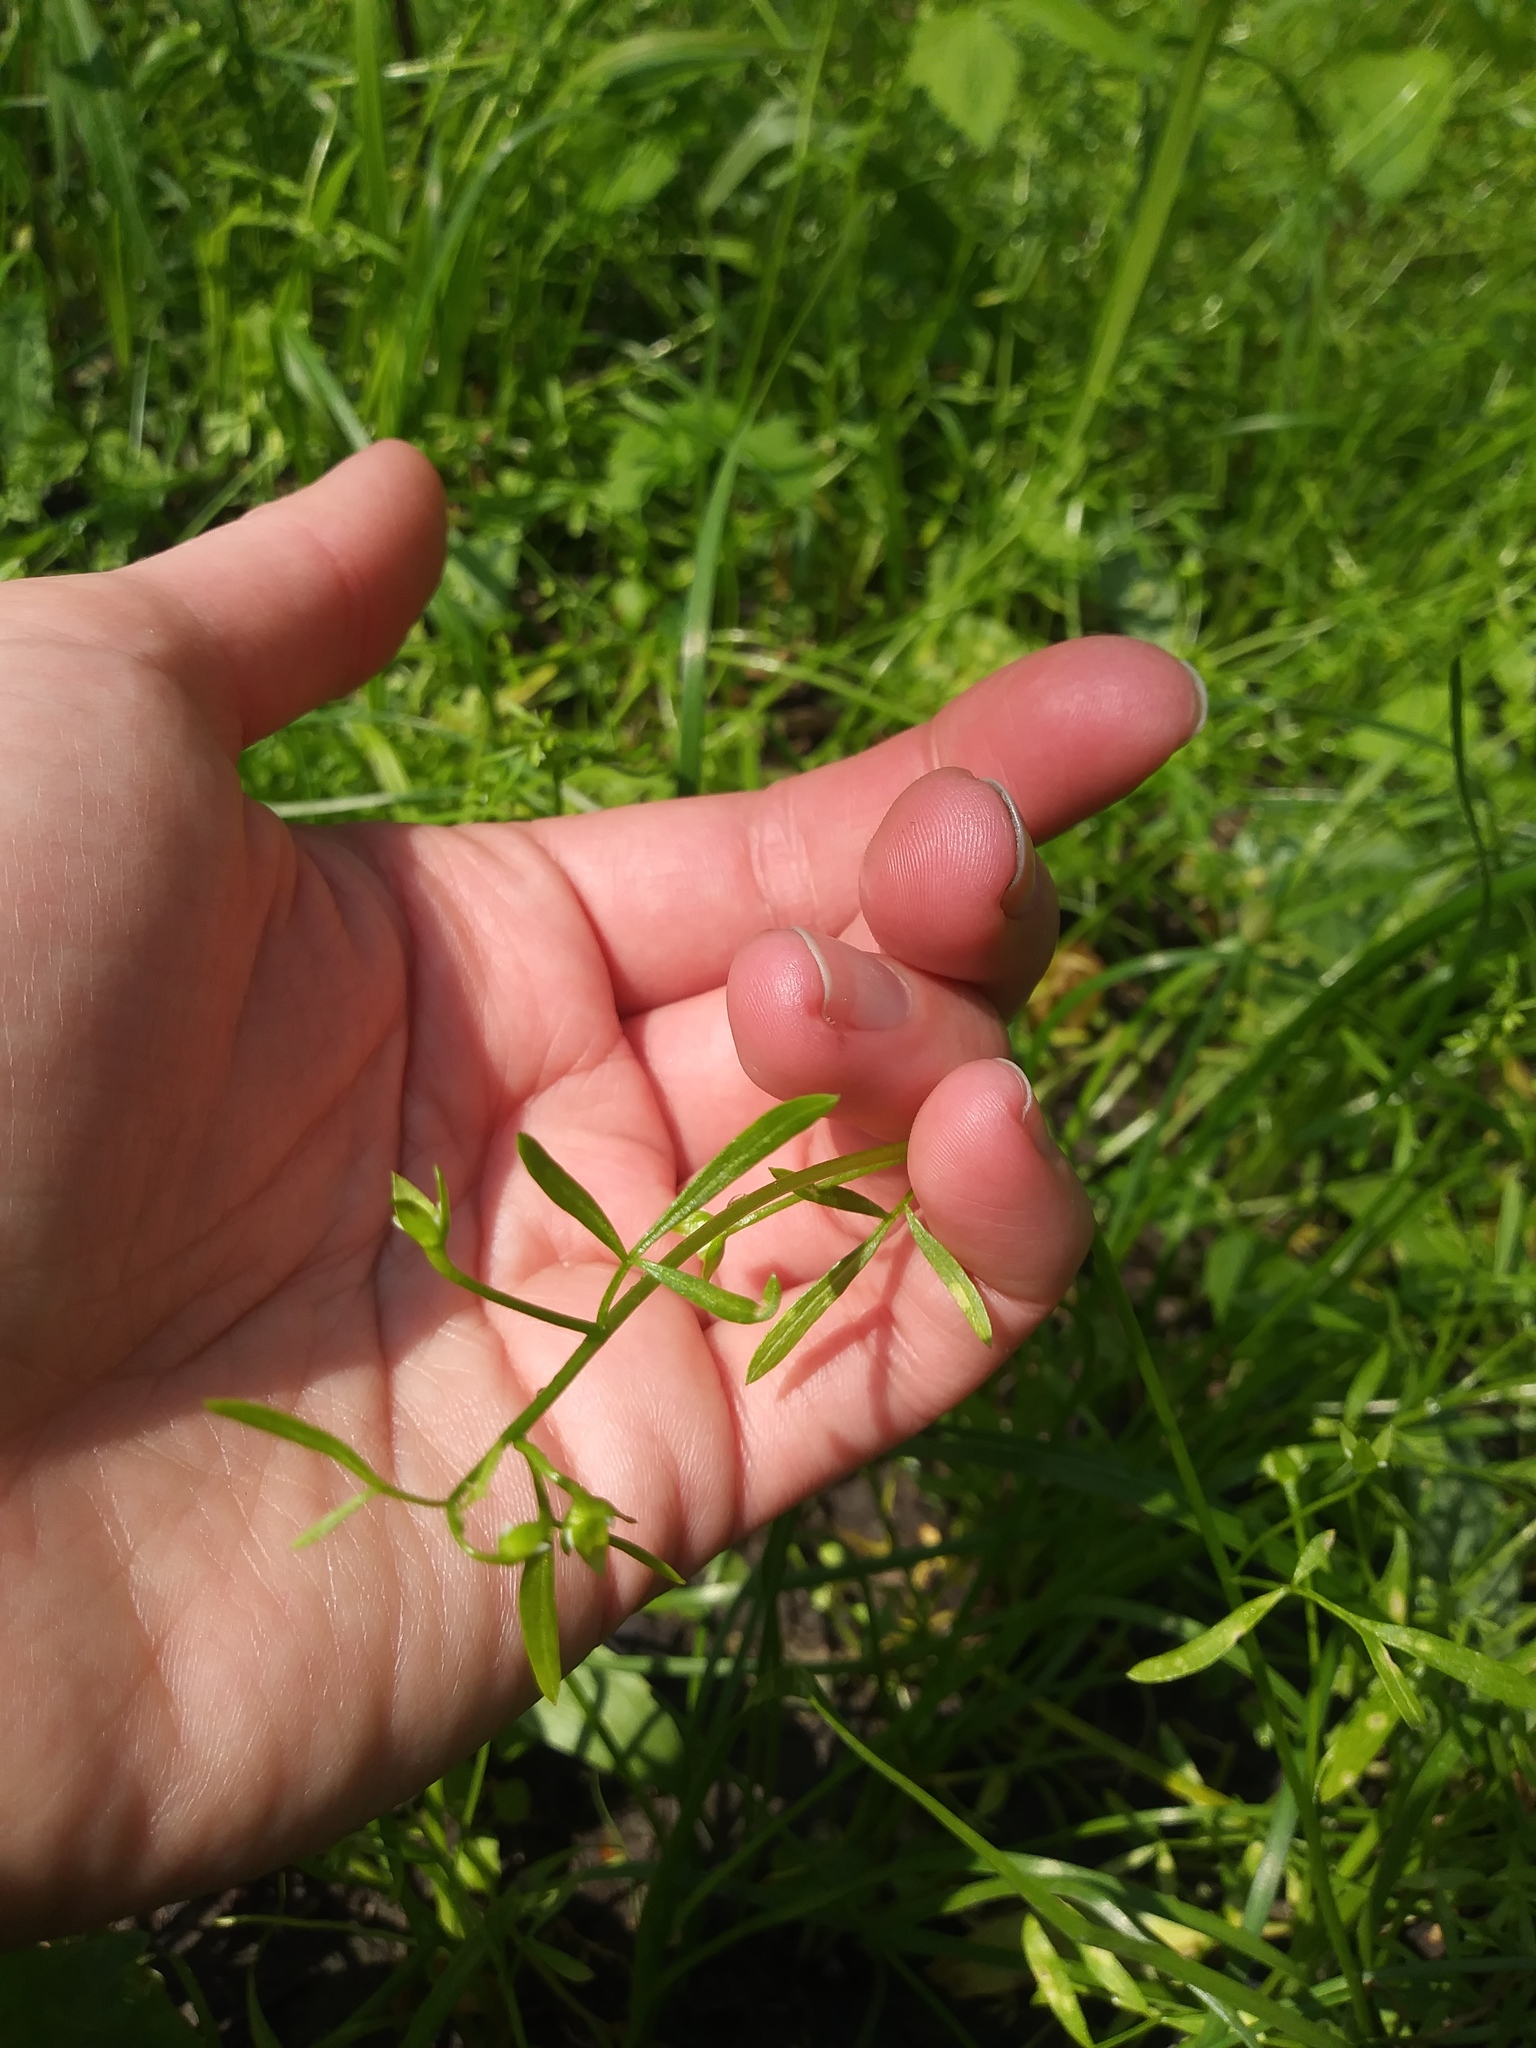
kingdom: Plantae
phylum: Tracheophyta
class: Magnoliopsida
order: Brassicales
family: Limnanthaceae
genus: Floerkea
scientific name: Floerkea proserpinacoides
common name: False mermaid
